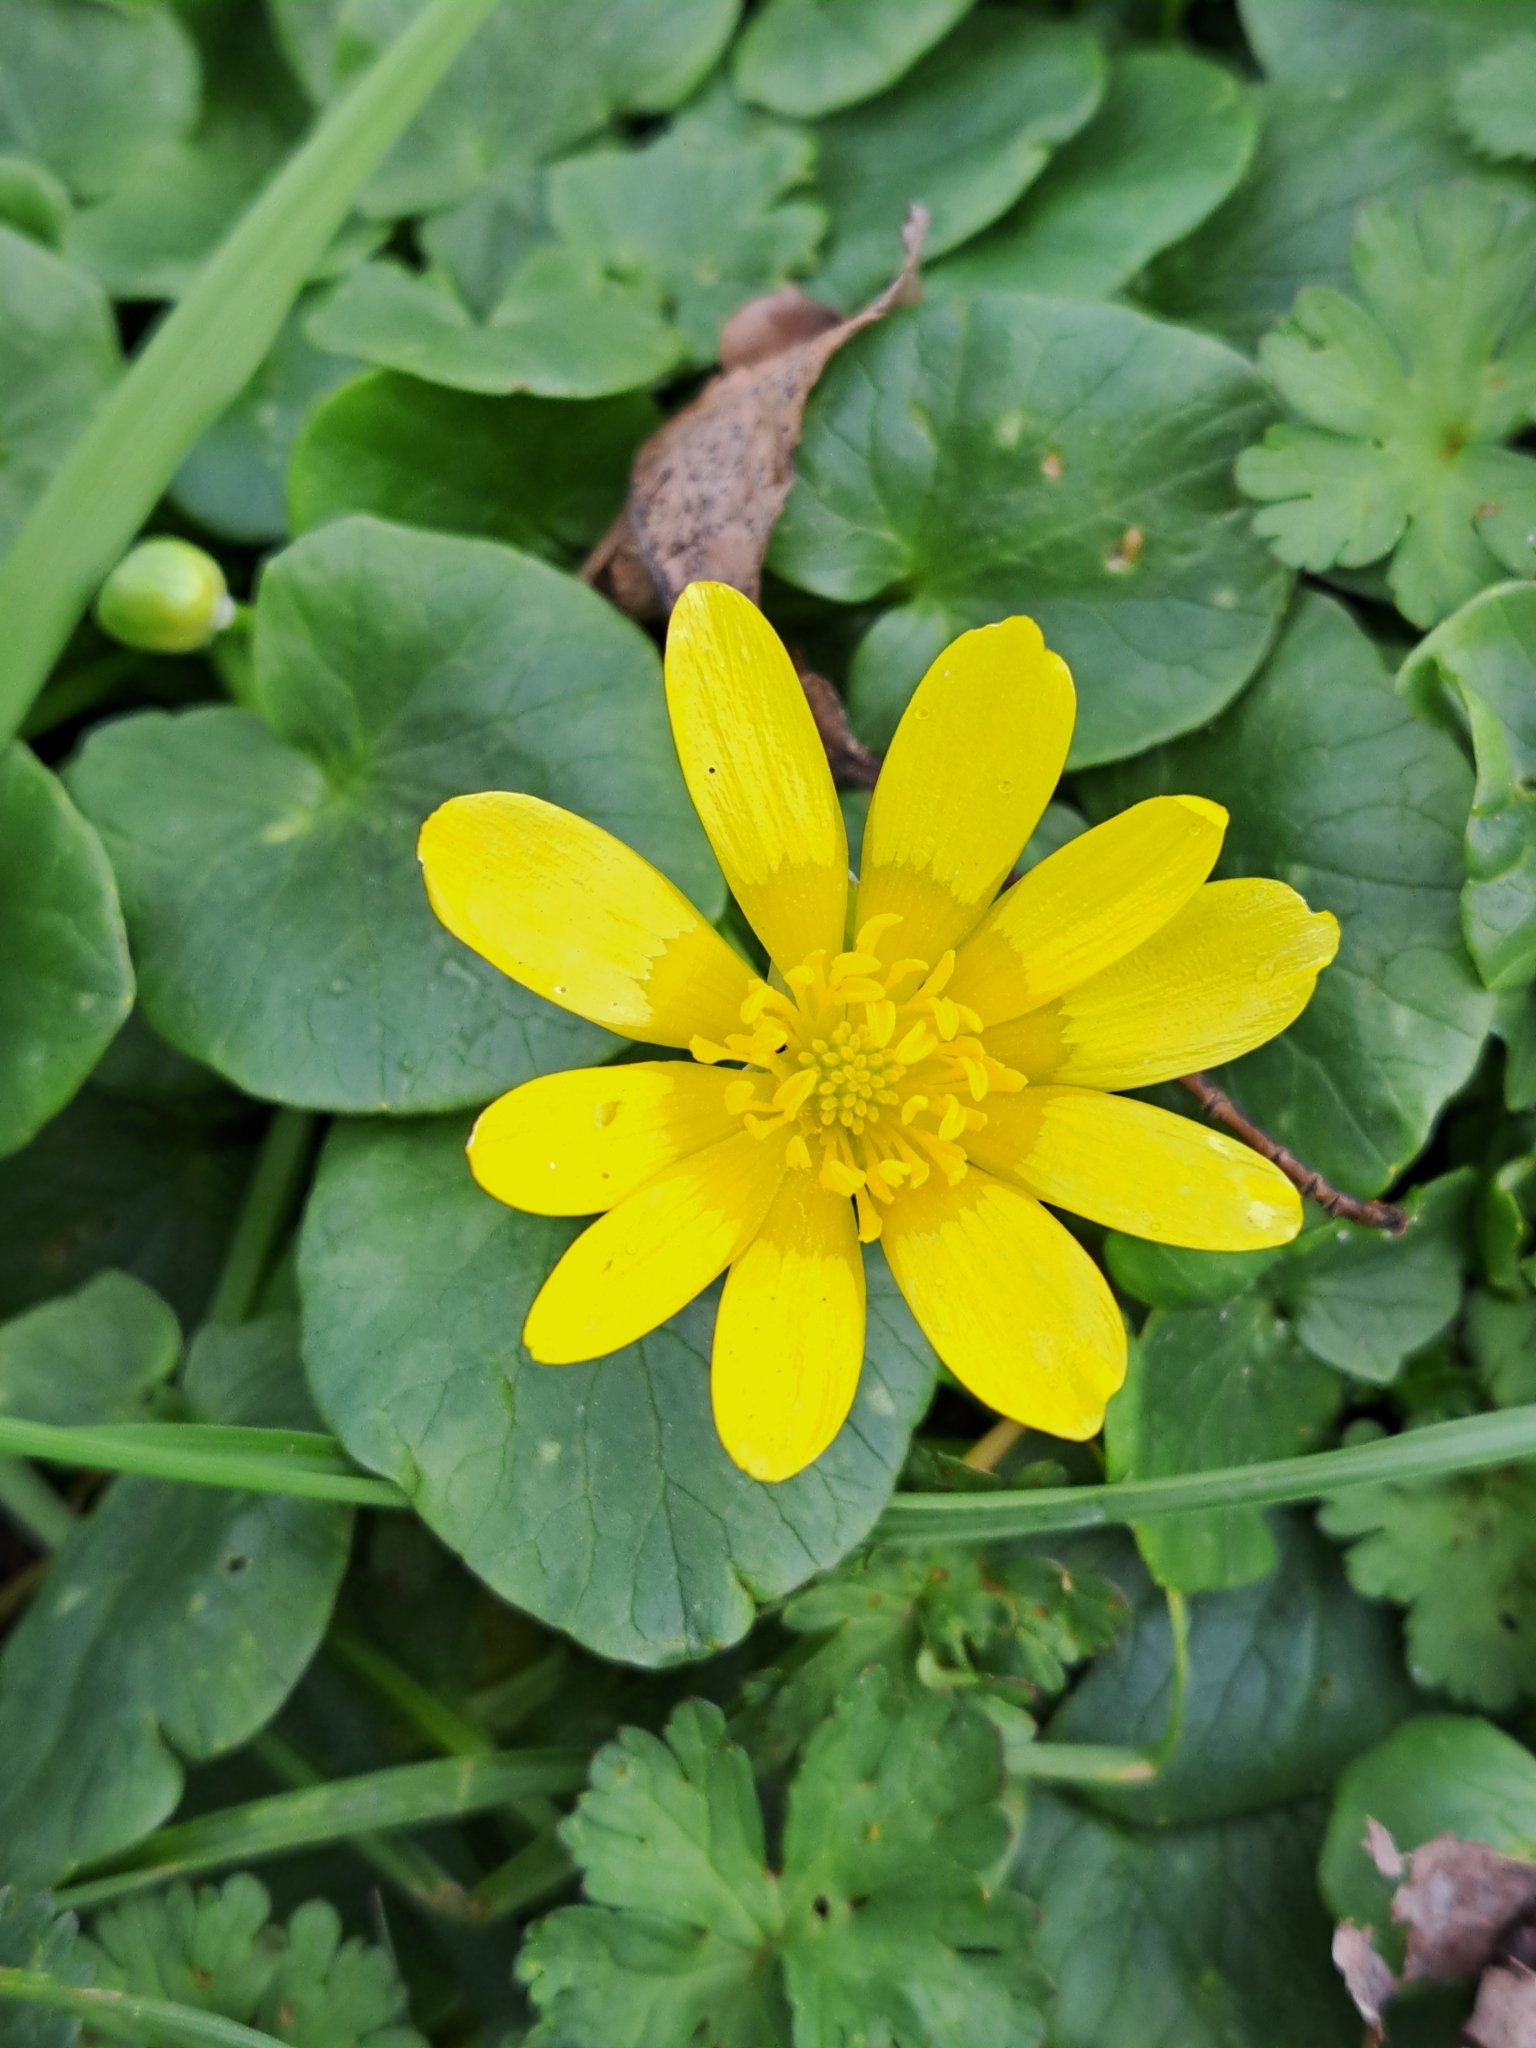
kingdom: Plantae
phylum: Tracheophyta
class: Magnoliopsida
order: Ranunculales
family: Ranunculaceae
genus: Ficaria
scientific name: Ficaria verna
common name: Lesser celandine
